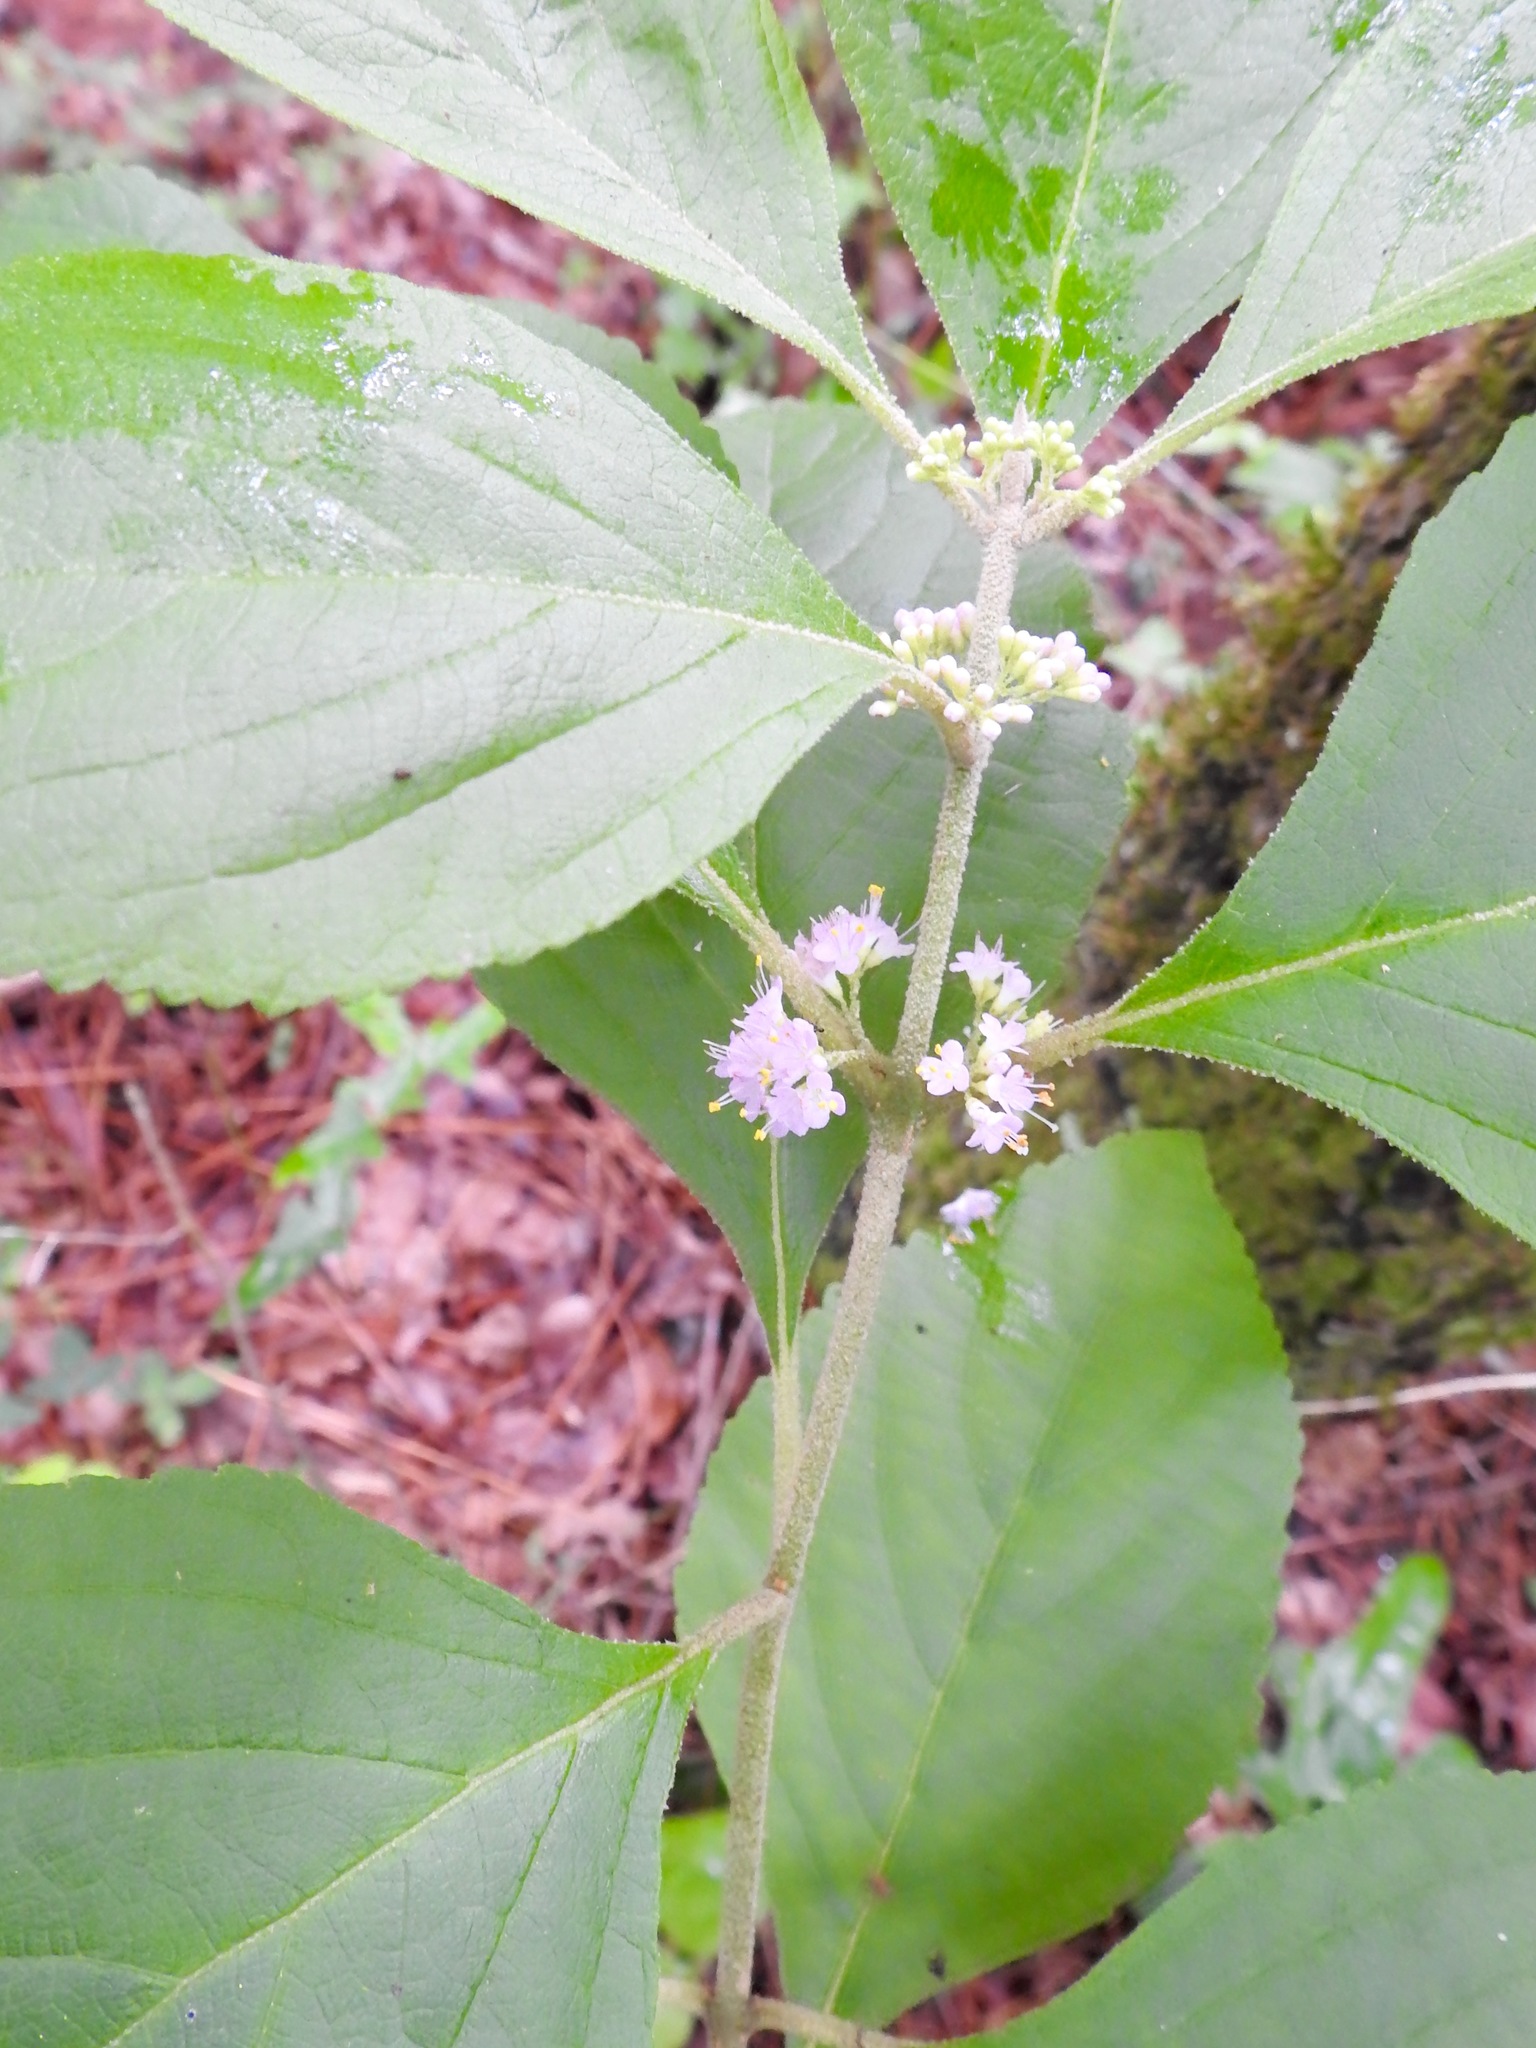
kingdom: Plantae
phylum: Tracheophyta
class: Magnoliopsida
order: Lamiales
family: Lamiaceae
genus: Callicarpa
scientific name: Callicarpa americana
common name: American beautyberry
